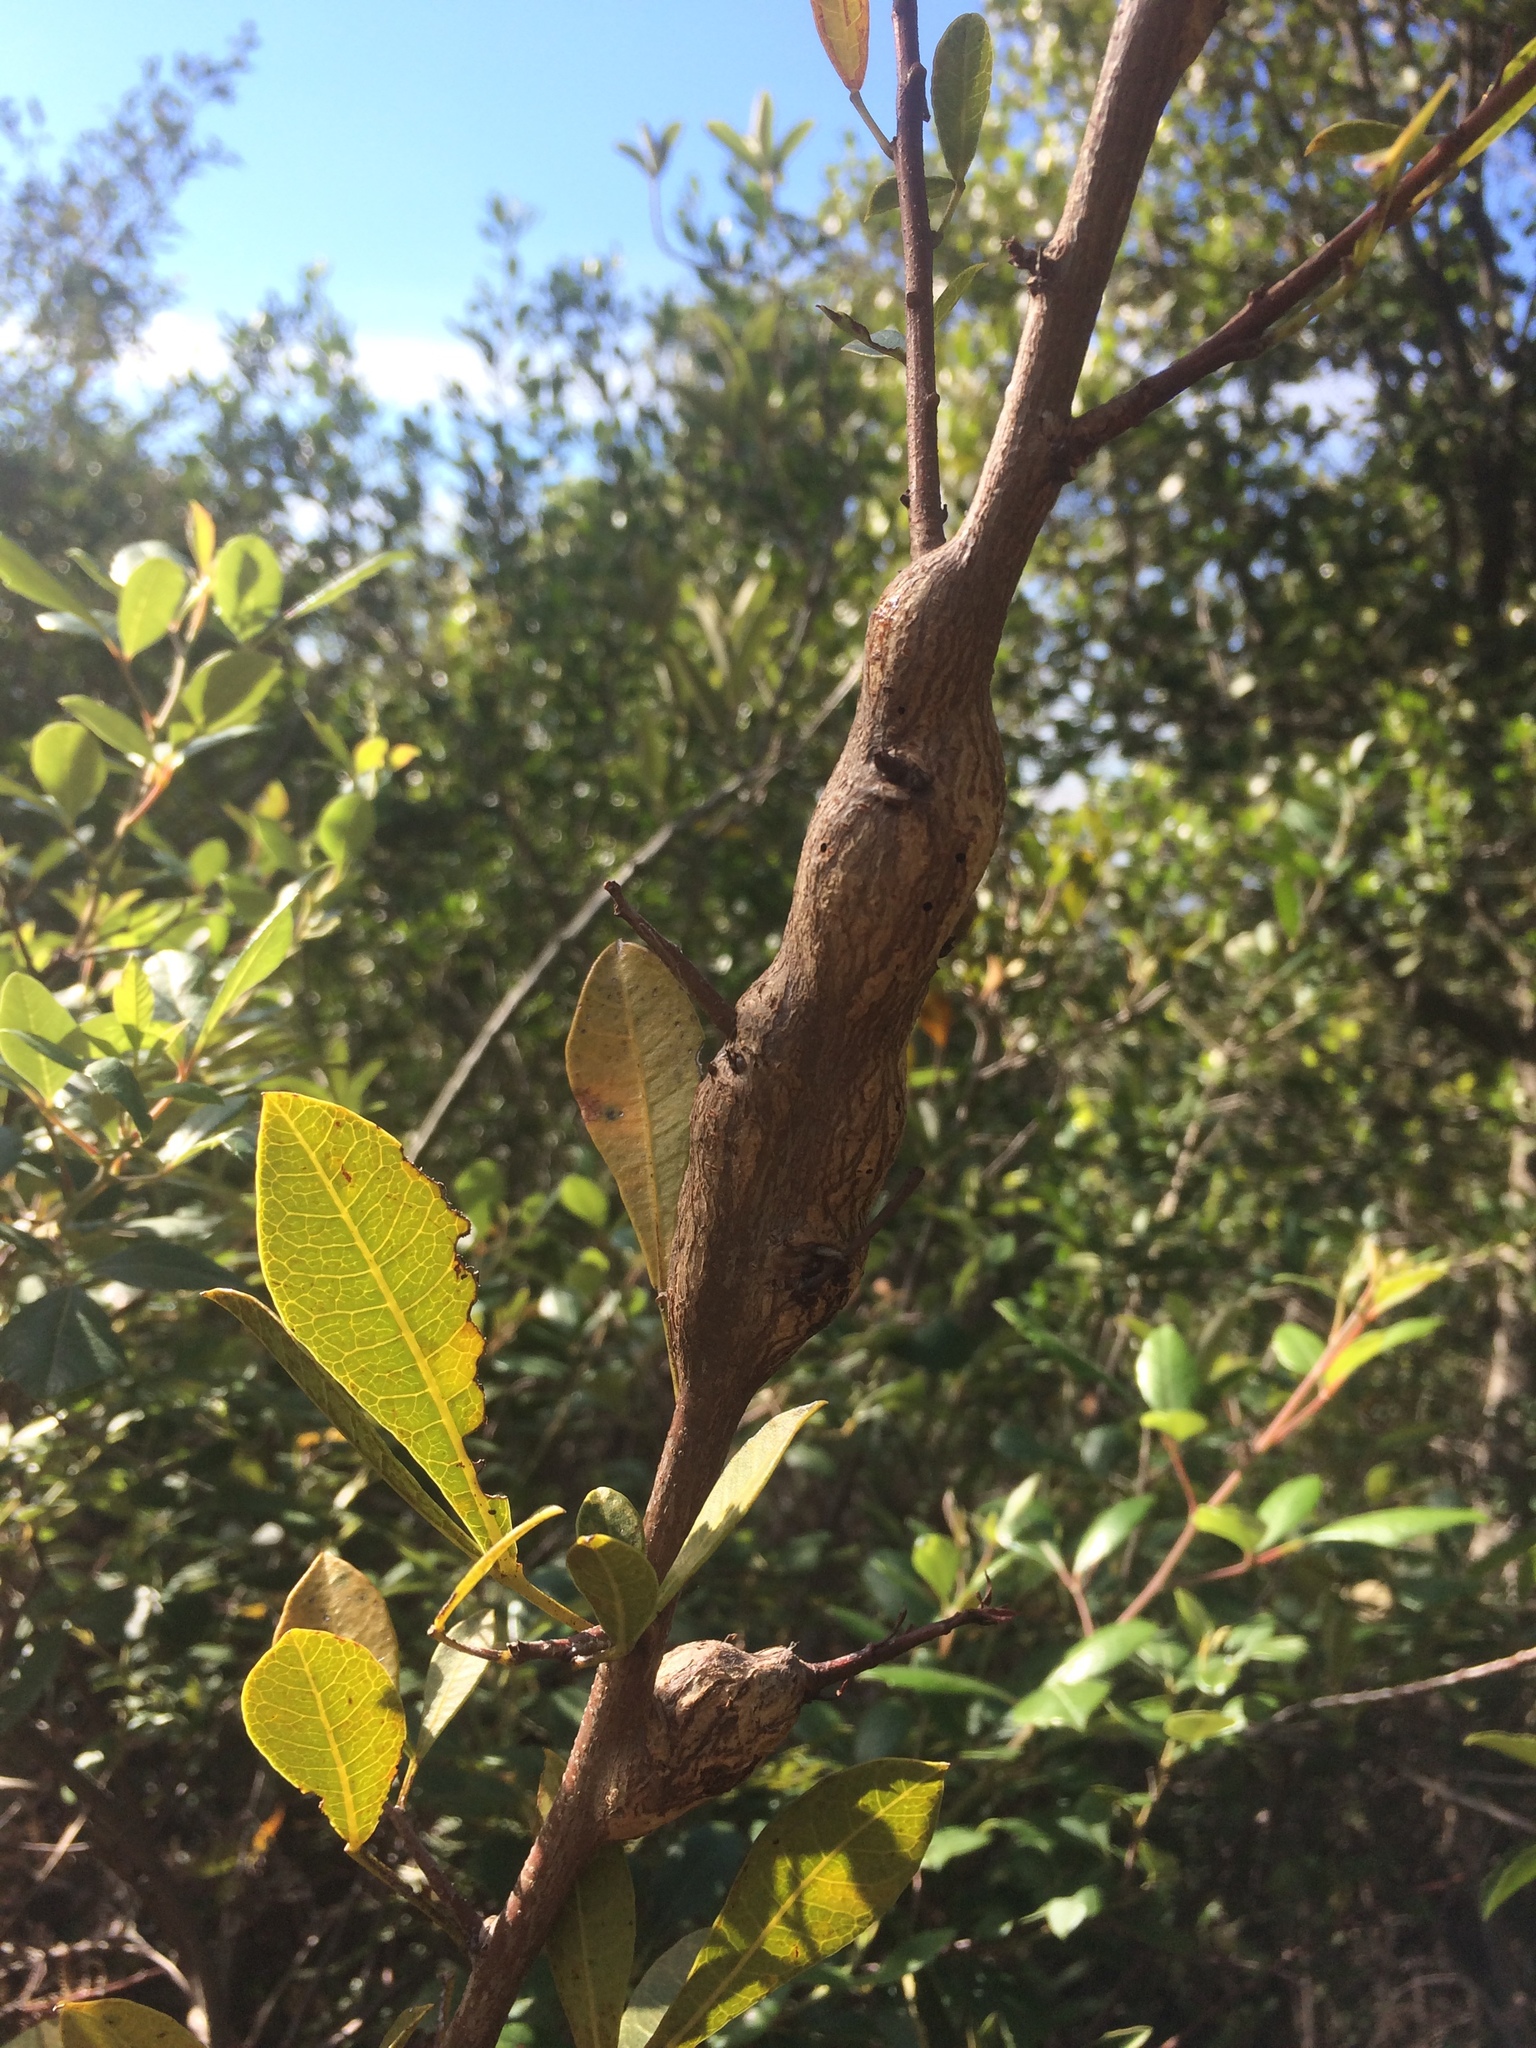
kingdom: Plantae
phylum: Tracheophyta
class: Magnoliopsida
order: Sapindales
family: Anacardiaceae
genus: Searsia
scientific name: Searsia laevigata
